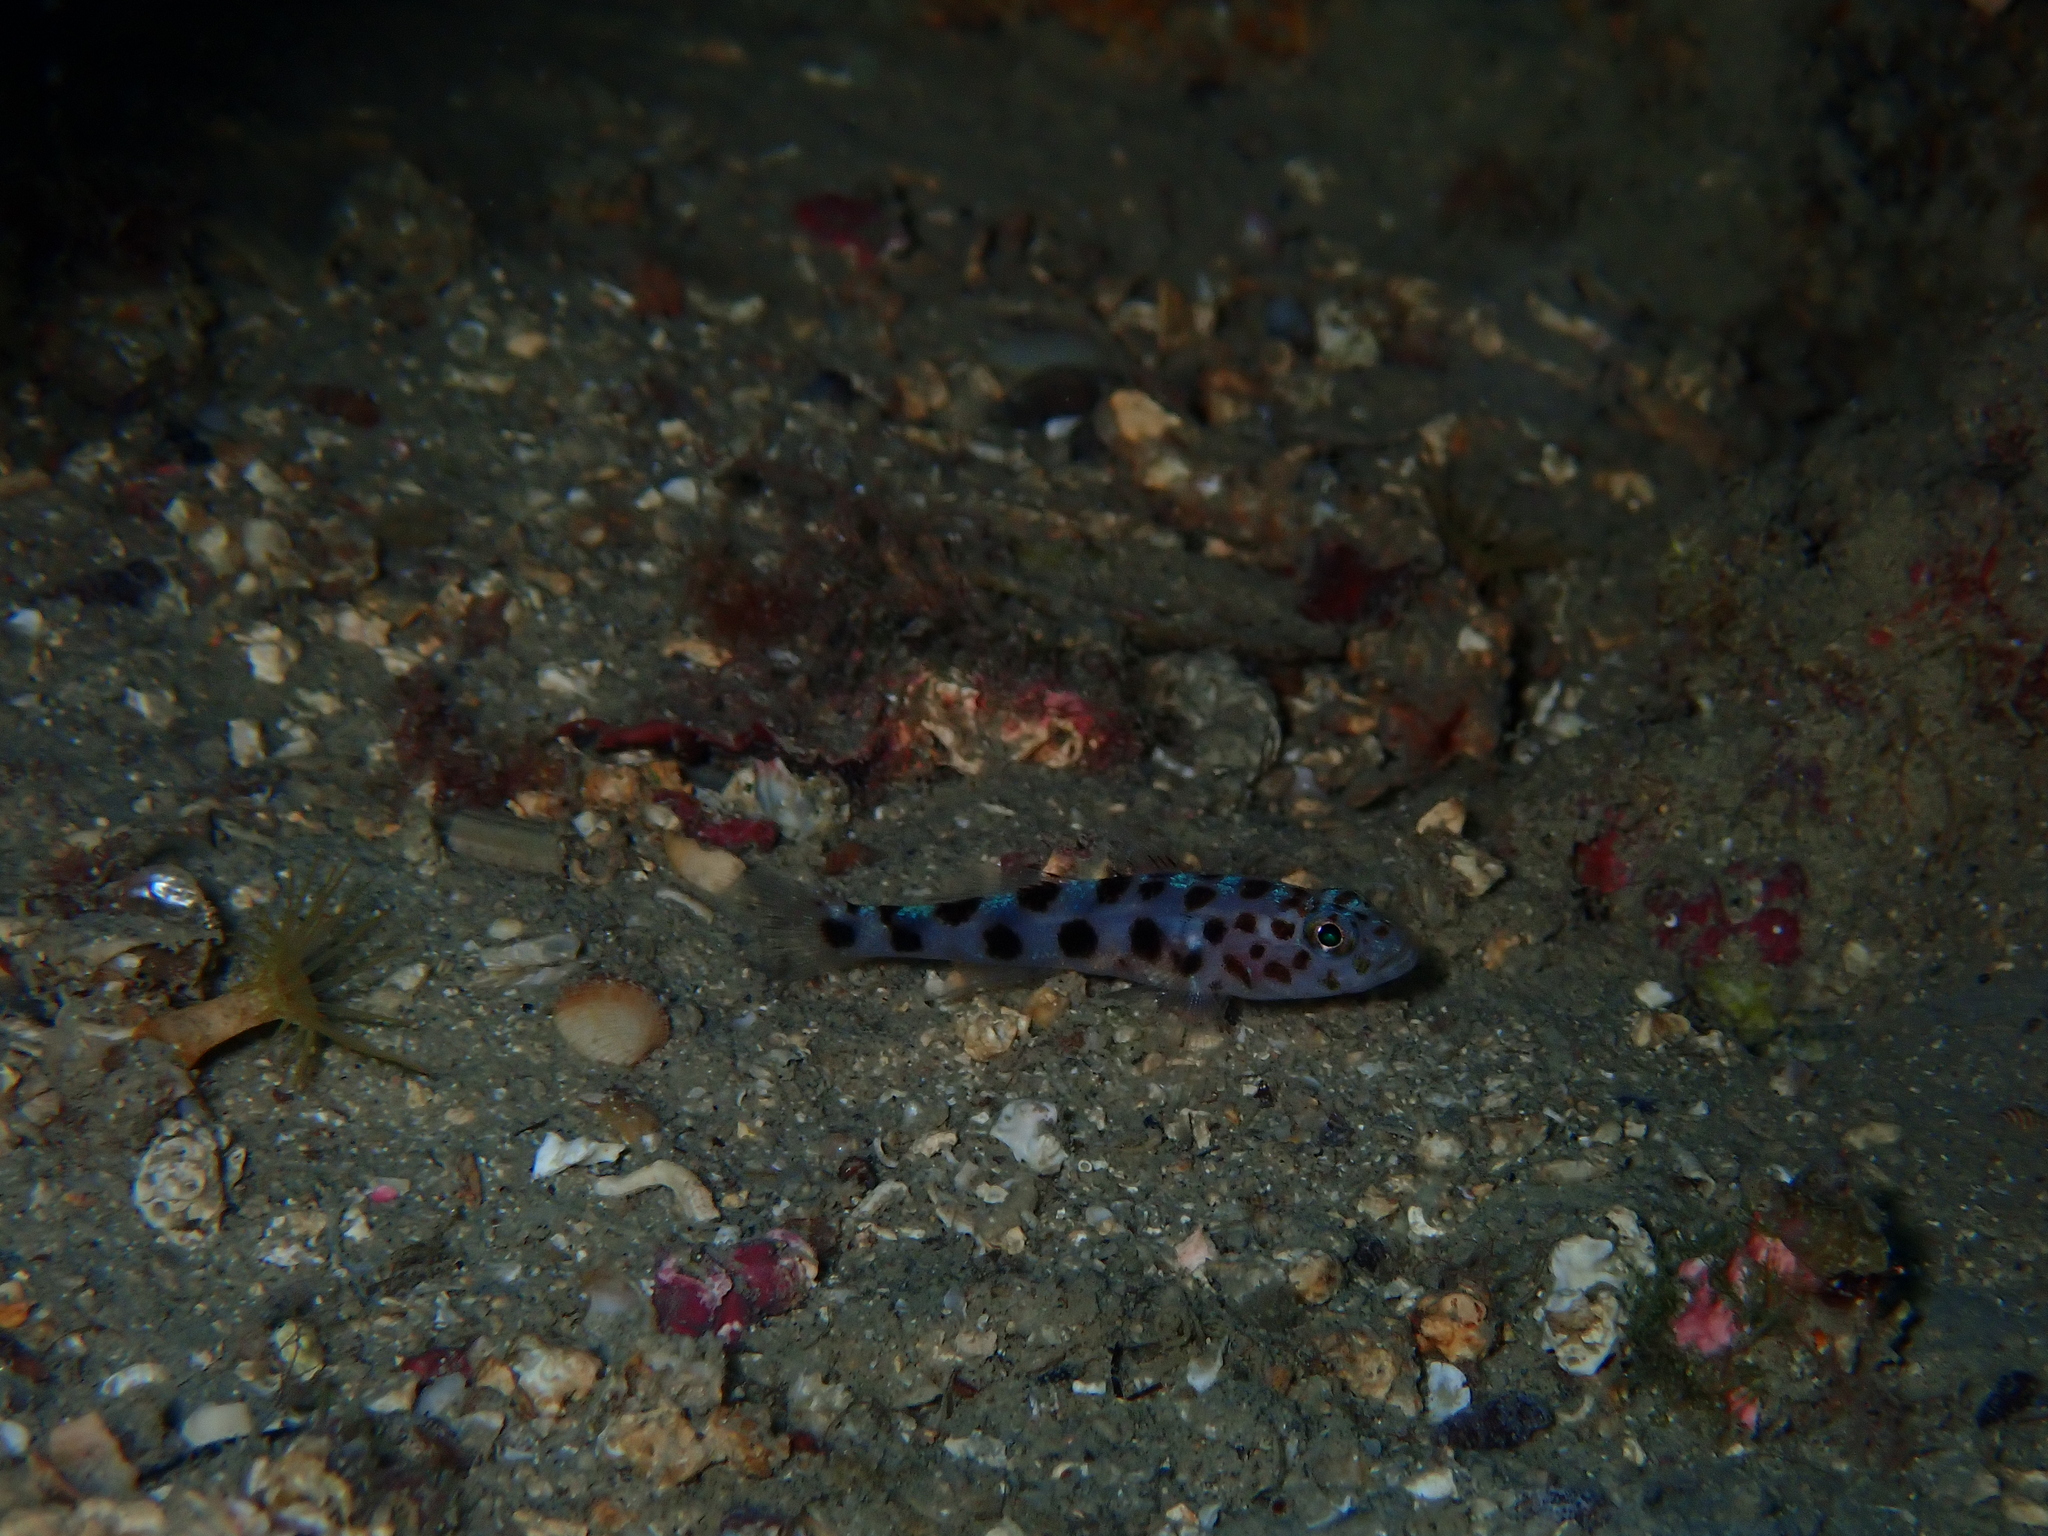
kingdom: Animalia
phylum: Chordata
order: Perciformes
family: Gobiidae
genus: Thorogobius
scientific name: Thorogobius ephippiatus
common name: Leopard-spotted goby
